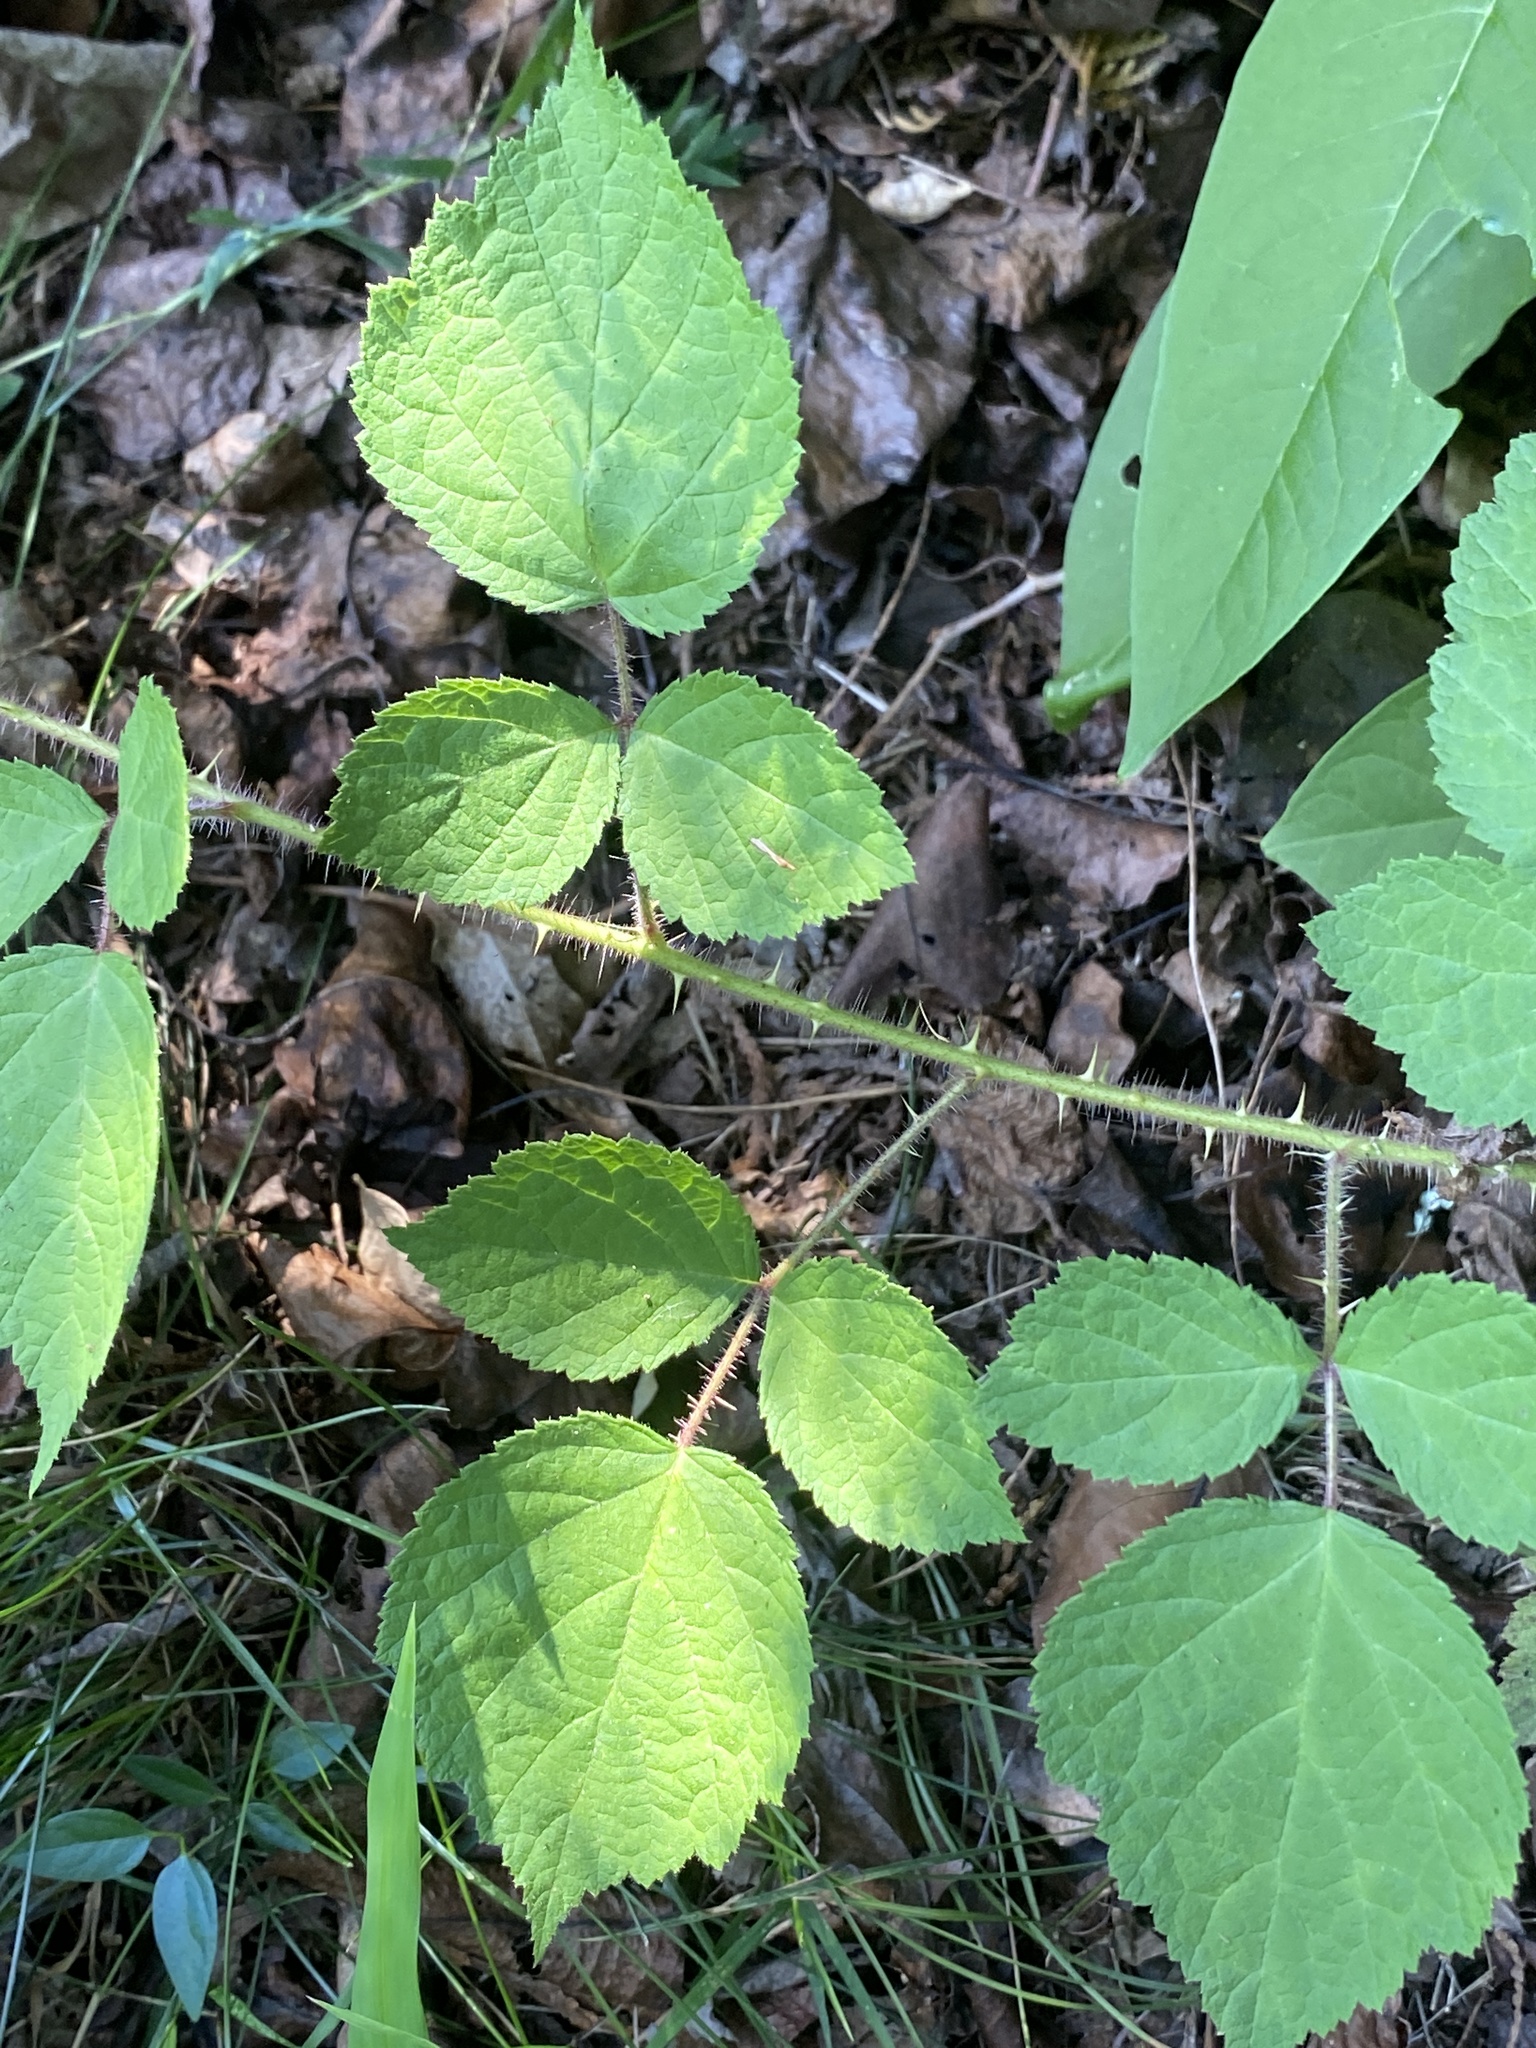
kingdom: Plantae
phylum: Tracheophyta
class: Magnoliopsida
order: Rosales
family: Rosaceae
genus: Rubus
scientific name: Rubus phoenicolasius
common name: Japanese wineberry
